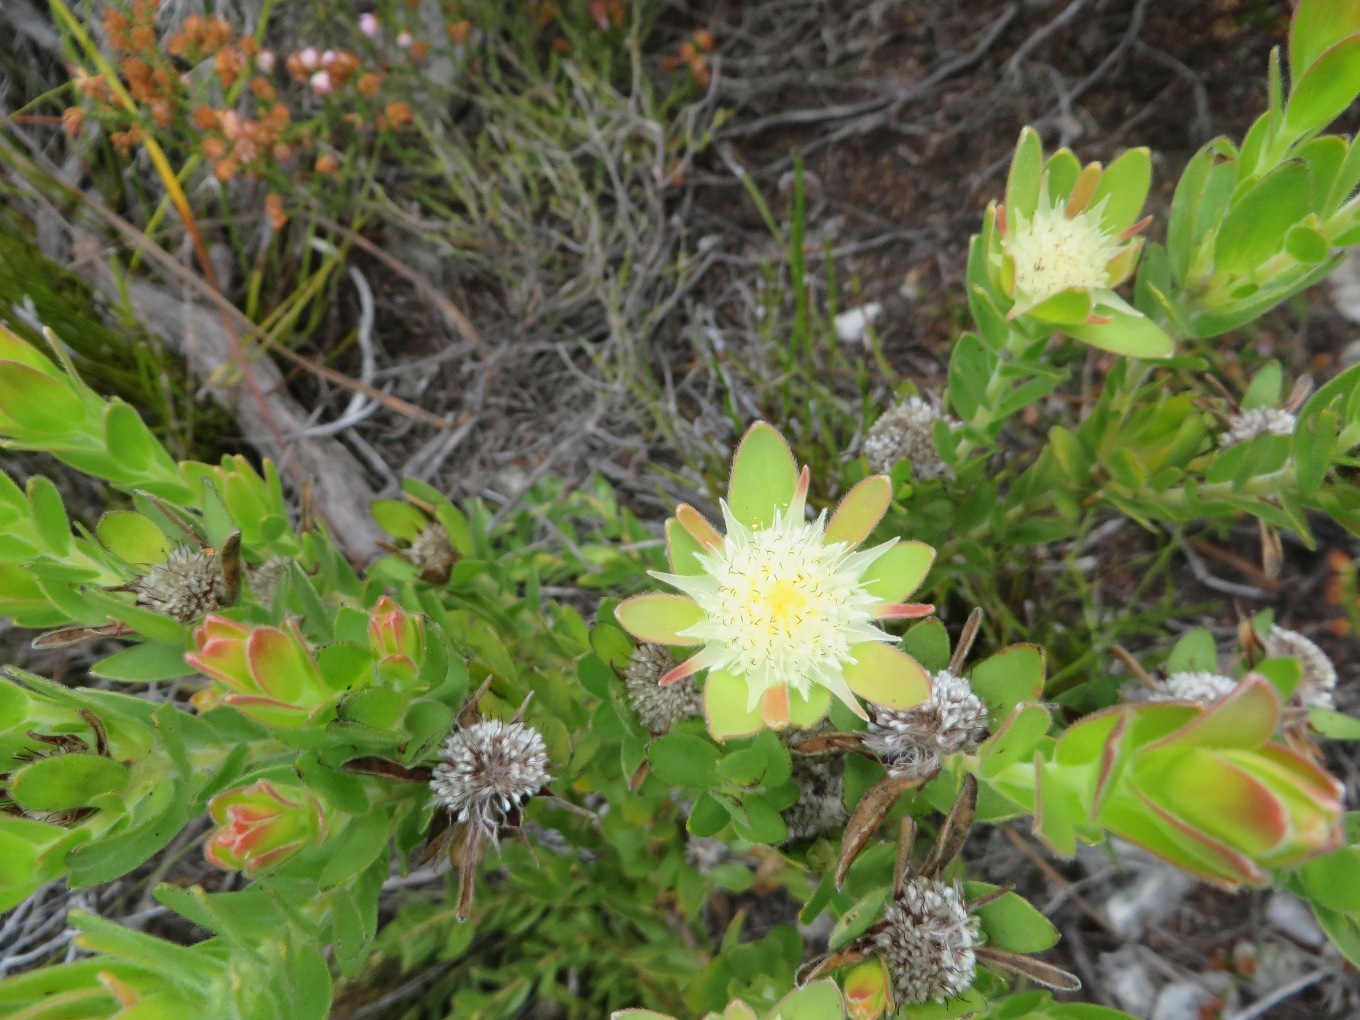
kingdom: Plantae
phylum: Tracheophyta
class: Magnoliopsida
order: Proteales
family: Proteaceae
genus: Diastella
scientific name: Diastella thymelaeoides
